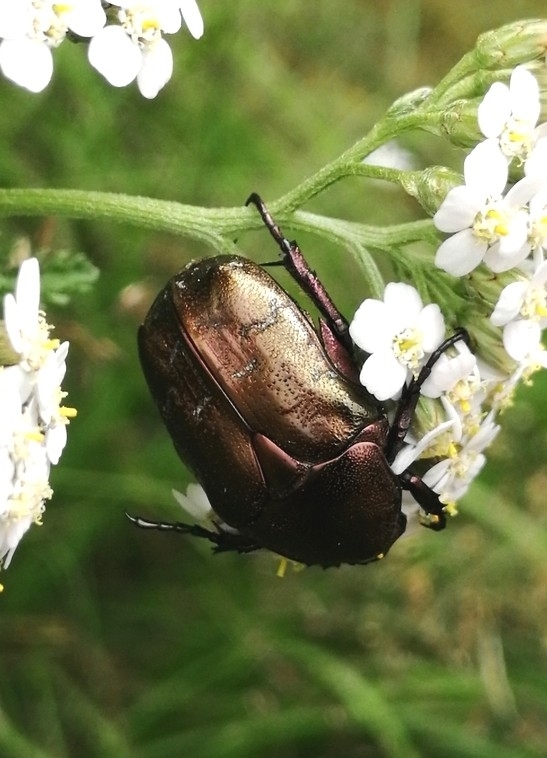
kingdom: Animalia
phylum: Arthropoda
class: Insecta
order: Coleoptera
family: Scarabaeidae
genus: Protaetia
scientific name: Protaetia cuprea
